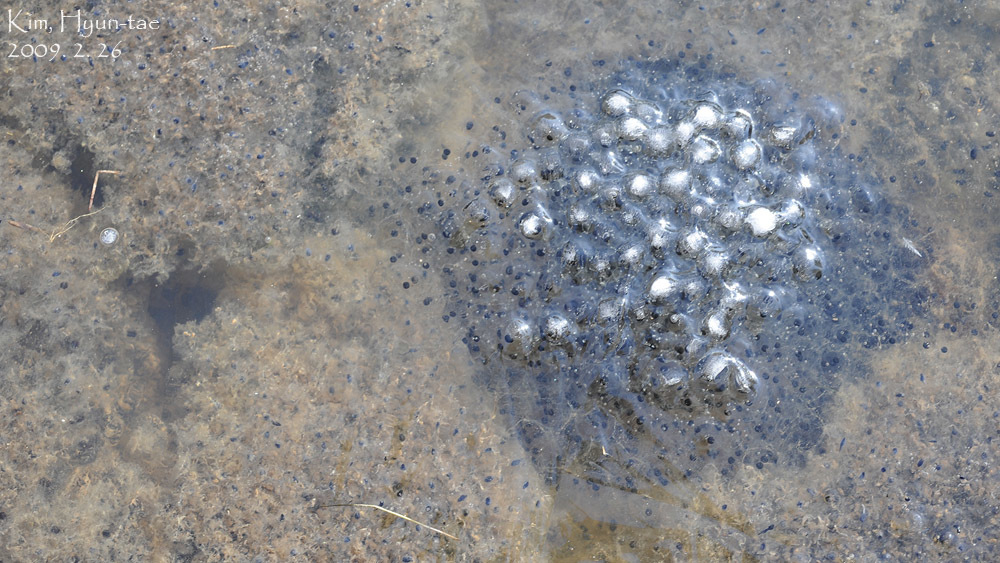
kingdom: Animalia
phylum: Chordata
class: Amphibia
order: Anura
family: Ranidae
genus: Rana
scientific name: Rana uenoi
